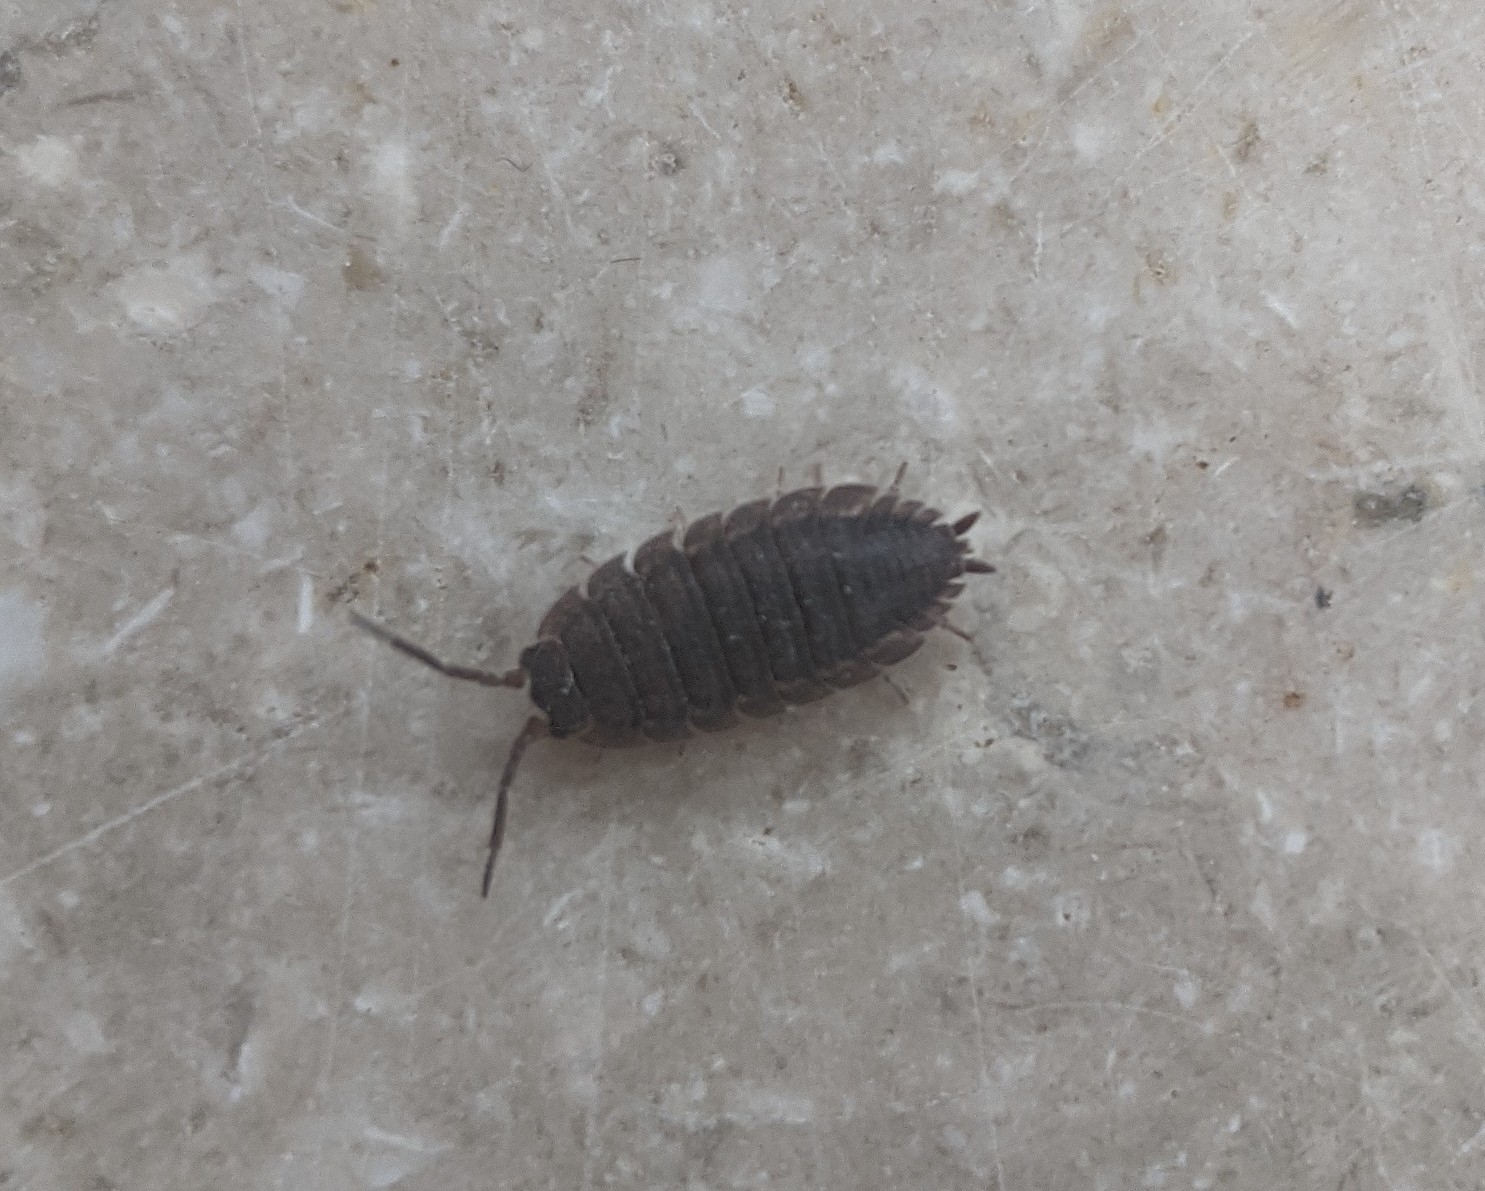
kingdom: Animalia
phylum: Arthropoda
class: Malacostraca
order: Isopoda
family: Porcellionidae
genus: Porcellio
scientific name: Porcellio scaber
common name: Common rough woodlouse
